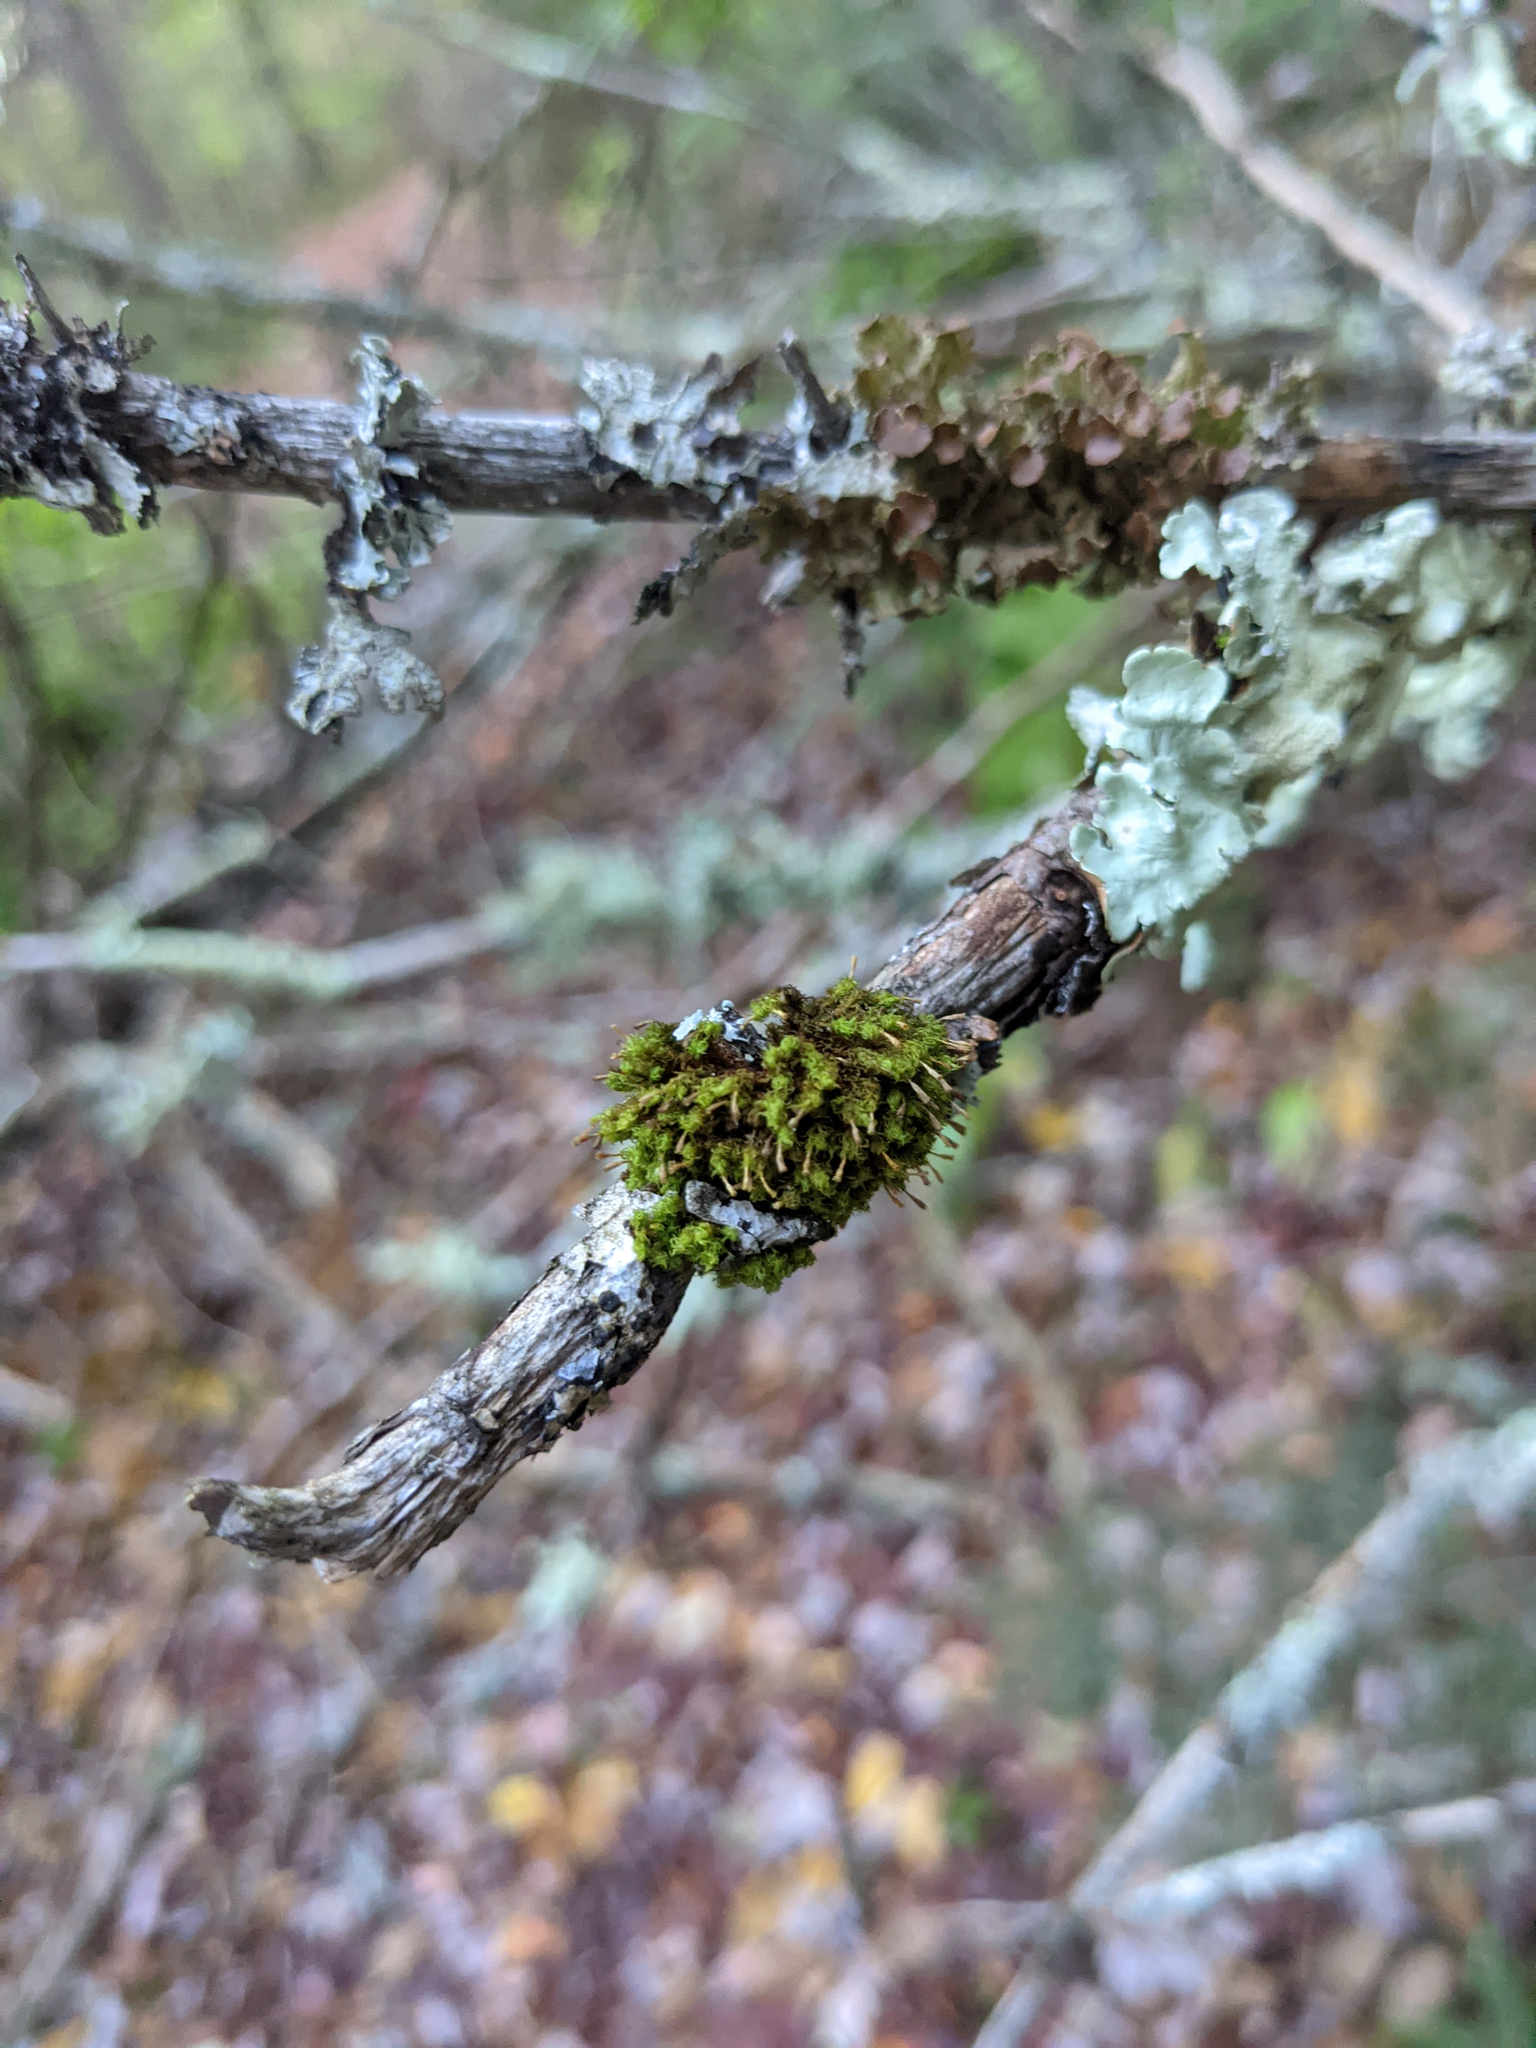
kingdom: Plantae
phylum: Bryophyta
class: Bryopsida
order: Orthotrichales
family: Orthotrichaceae
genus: Ulota
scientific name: Ulota crispa
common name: Crisped pincushion moss
